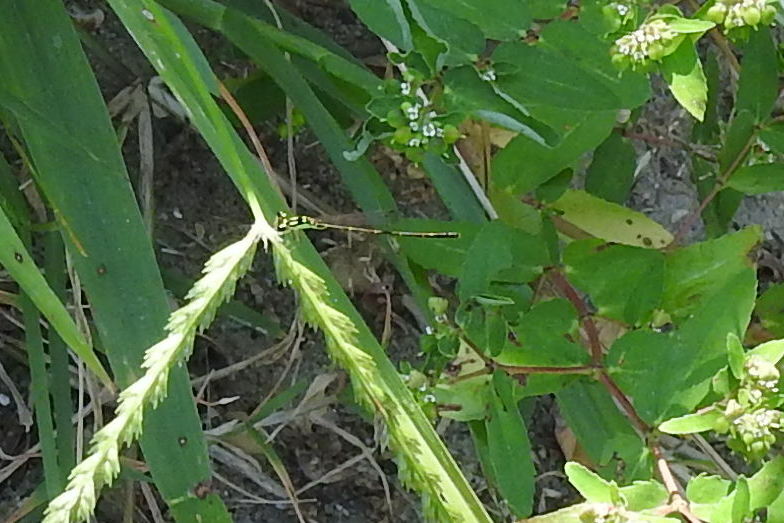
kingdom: Animalia
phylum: Arthropoda
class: Insecta
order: Odonata
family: Coenagrionidae
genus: Ischnura
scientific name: Ischnura posita
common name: Fragile forktail
